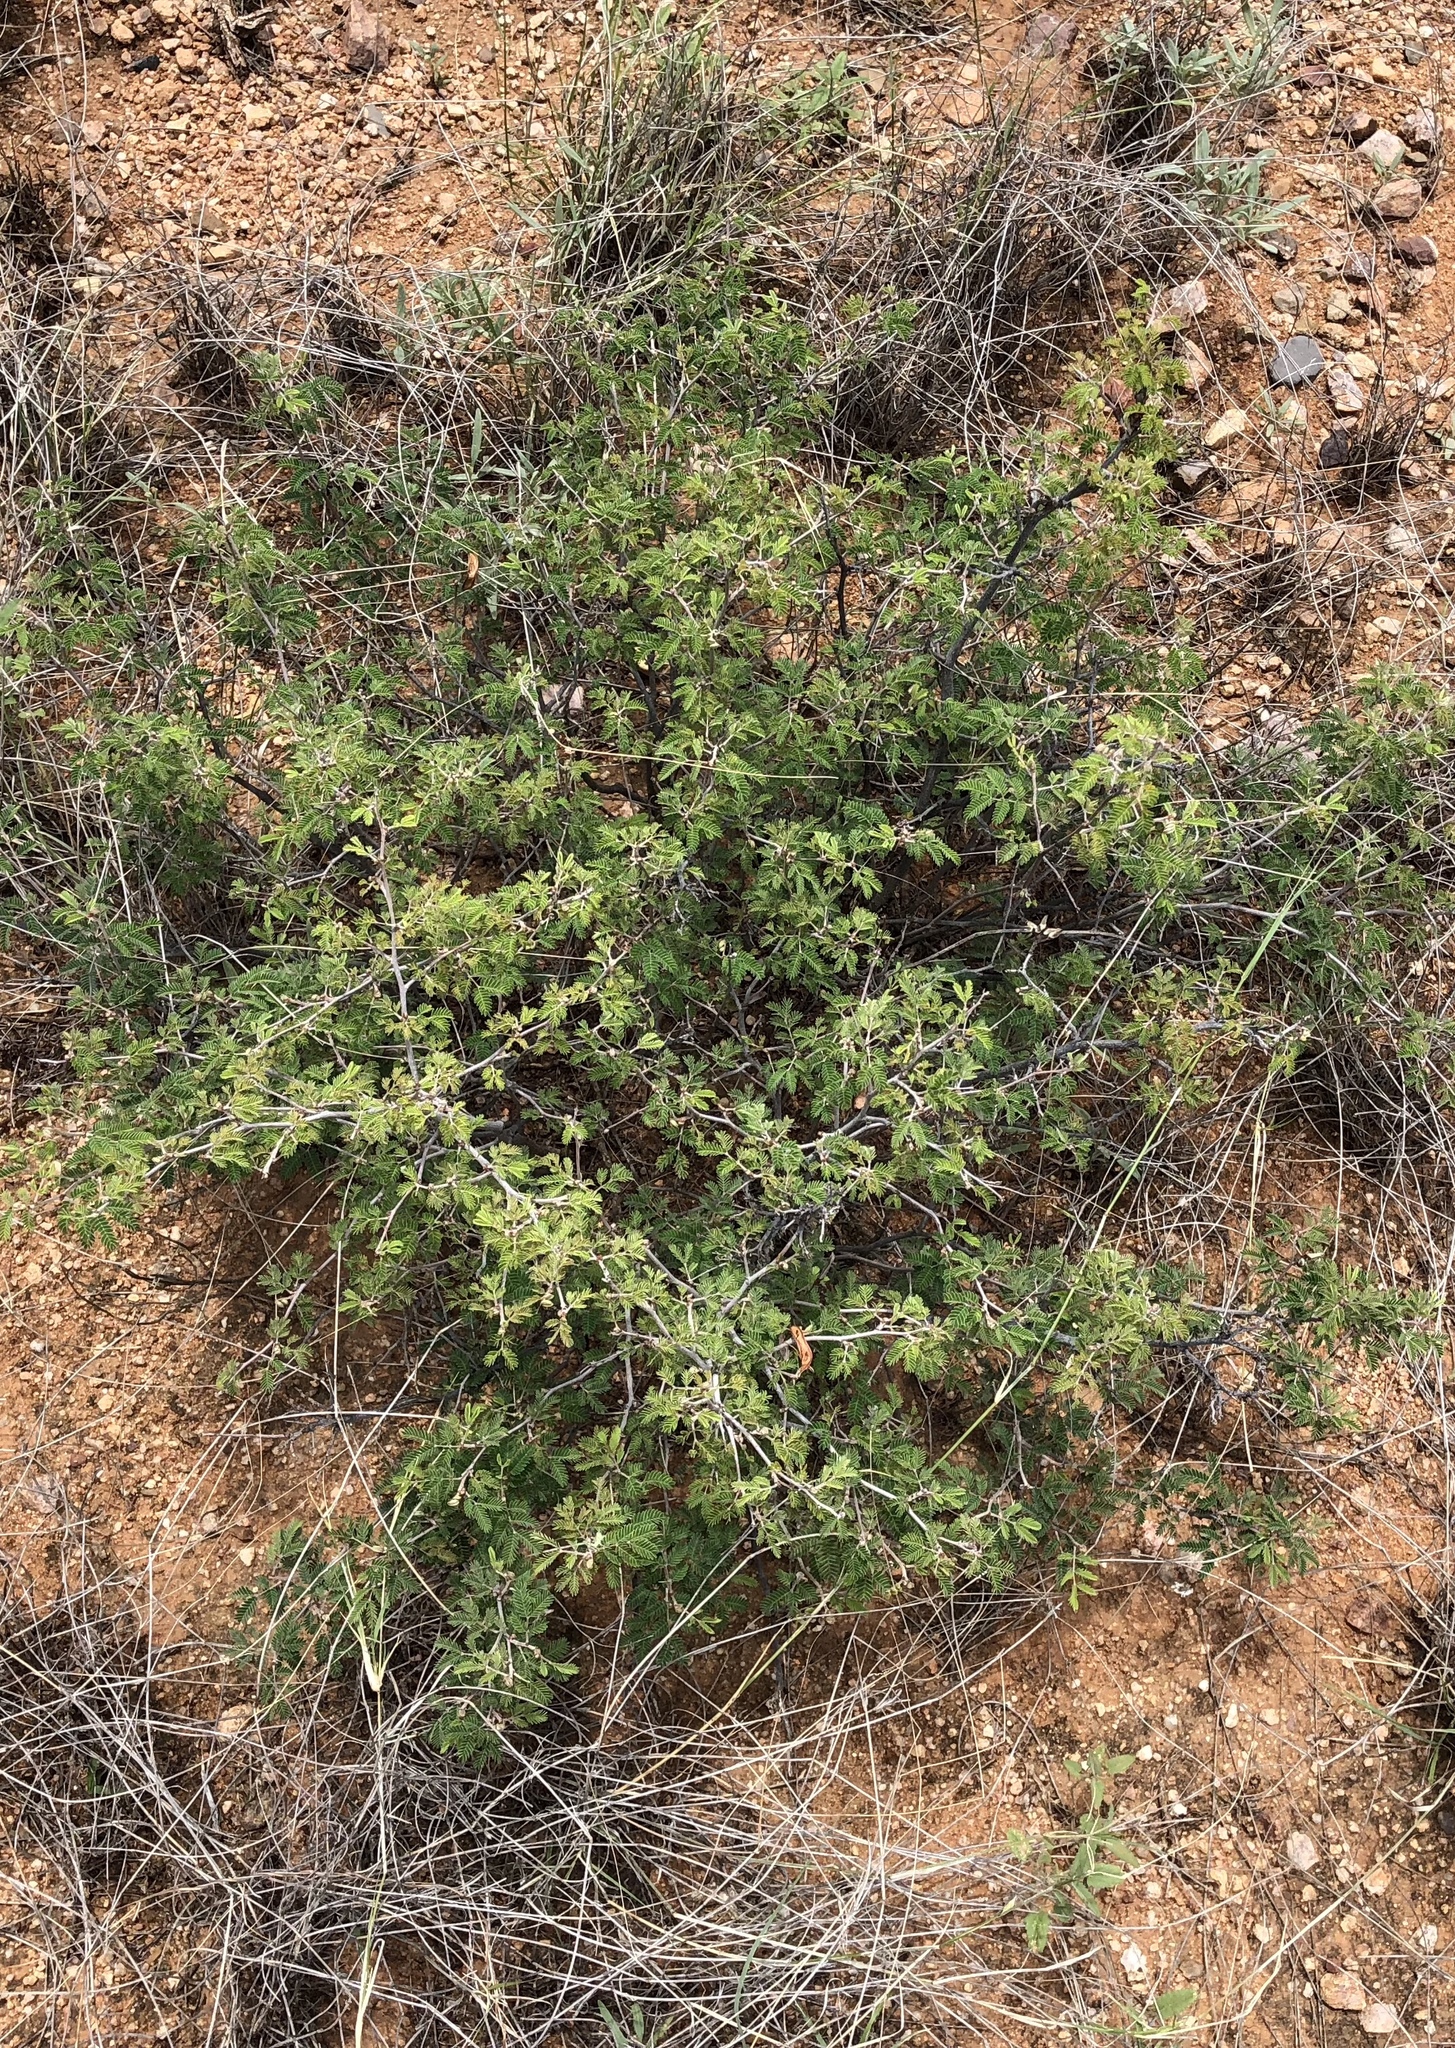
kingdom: Plantae
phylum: Tracheophyta
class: Magnoliopsida
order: Fabales
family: Fabaceae
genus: Calliandra
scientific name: Calliandra eriophylla
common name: Fairy-duster
